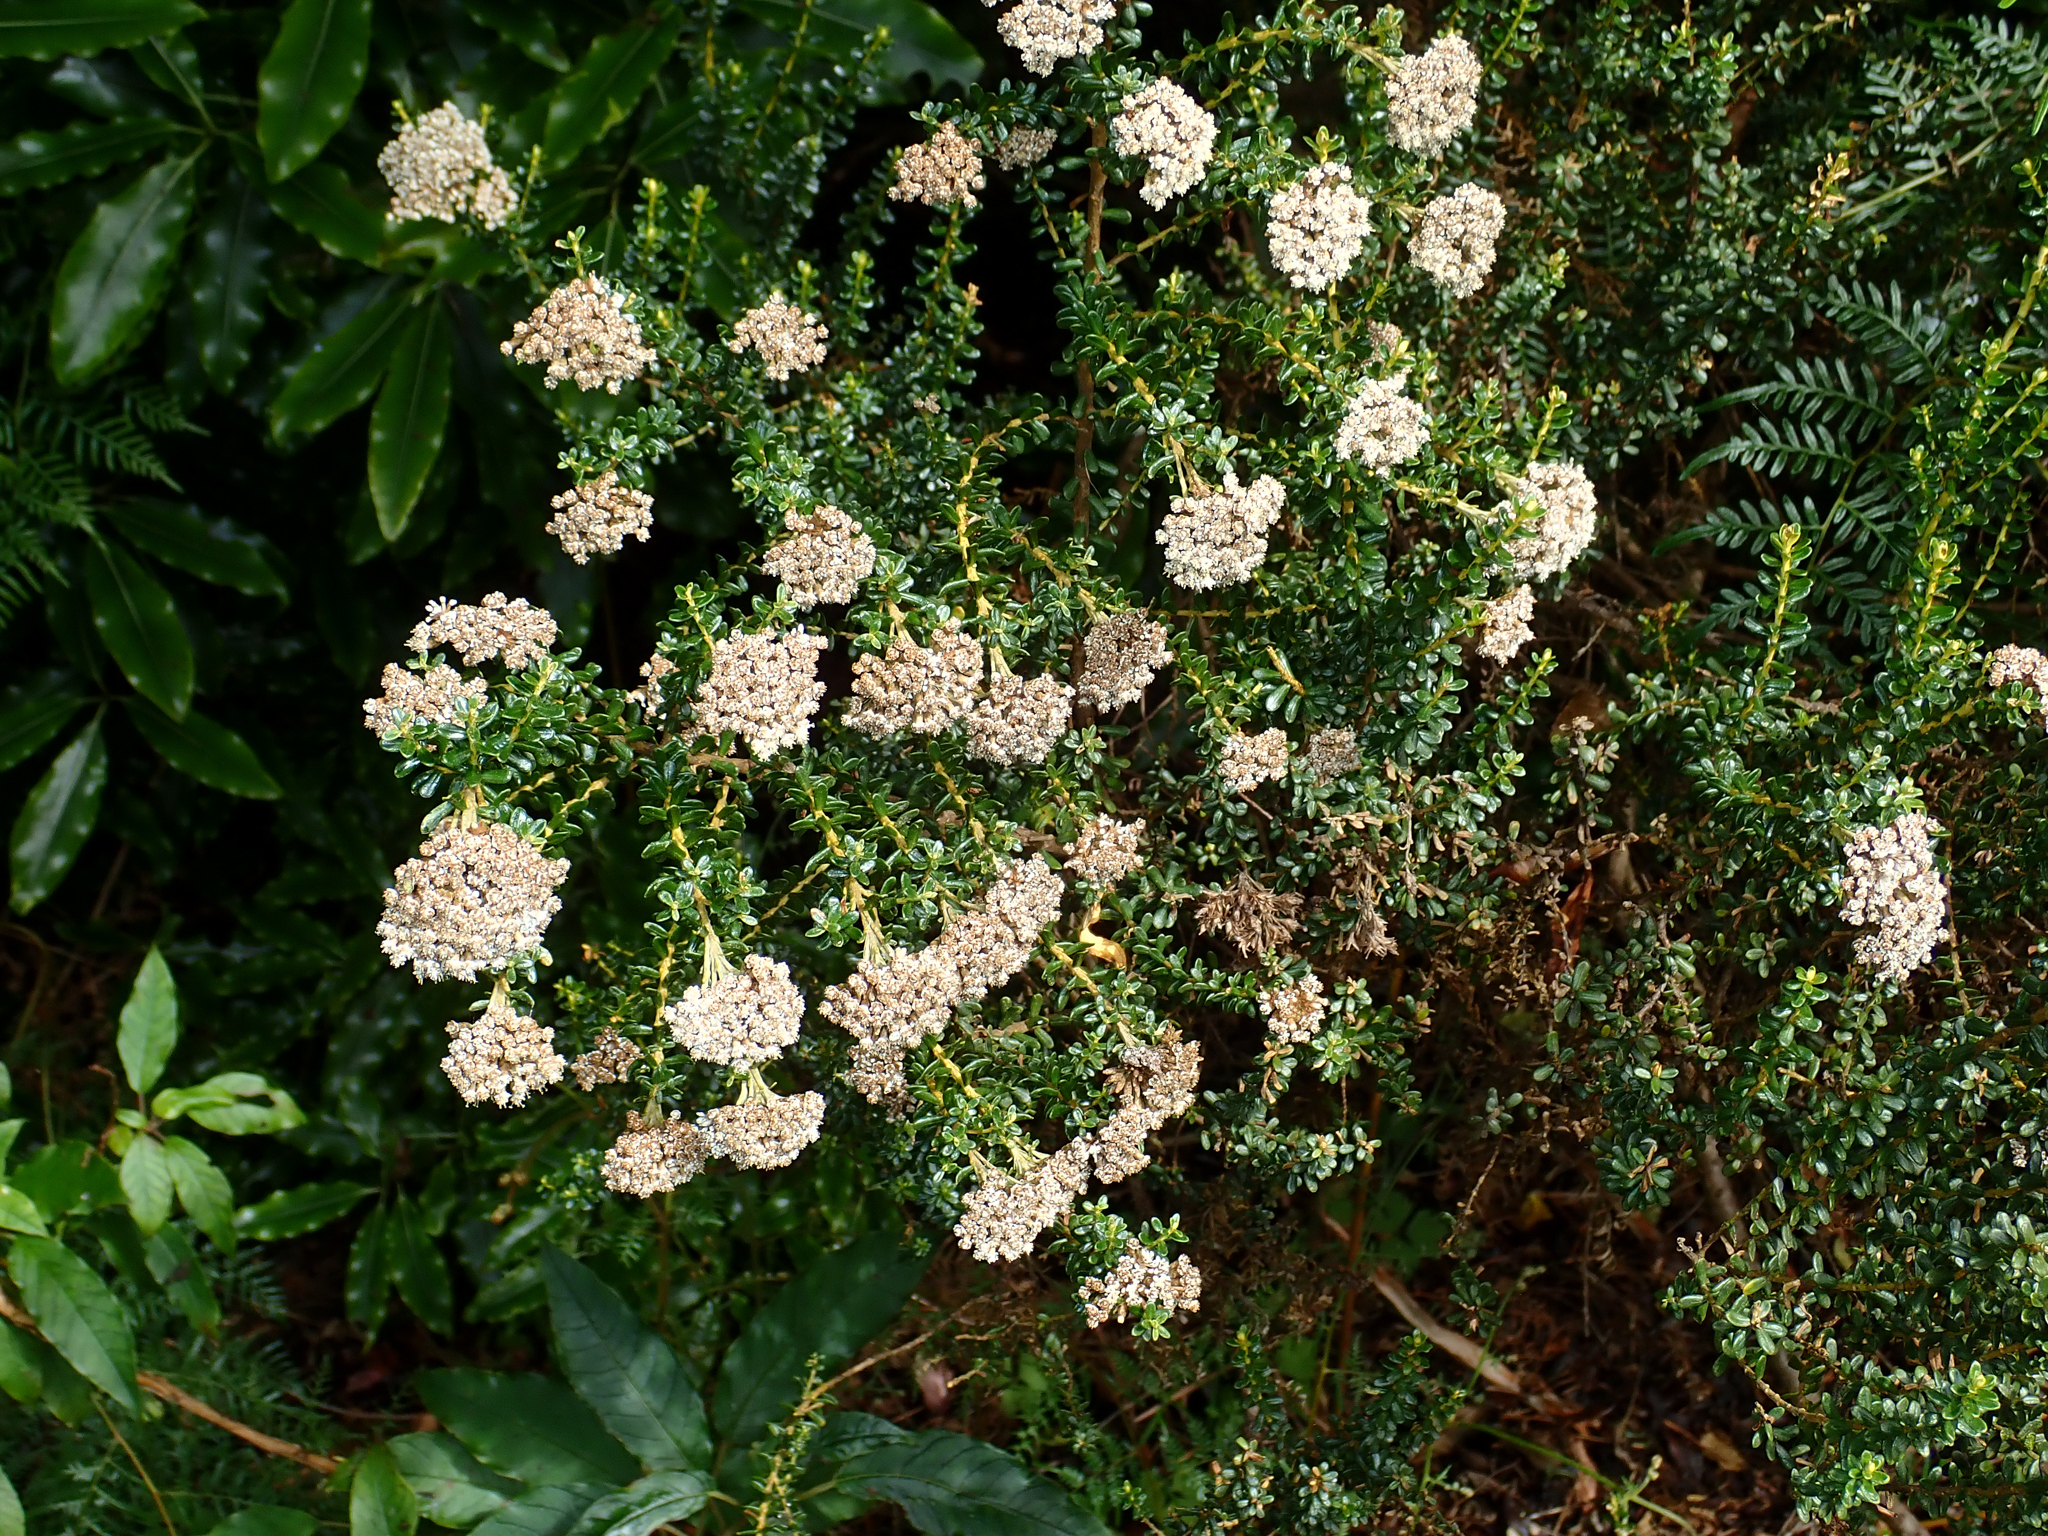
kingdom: Plantae
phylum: Tracheophyta
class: Magnoliopsida
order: Asterales
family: Asteraceae
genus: Ozothamnus
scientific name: Ozothamnus leptophyllus
